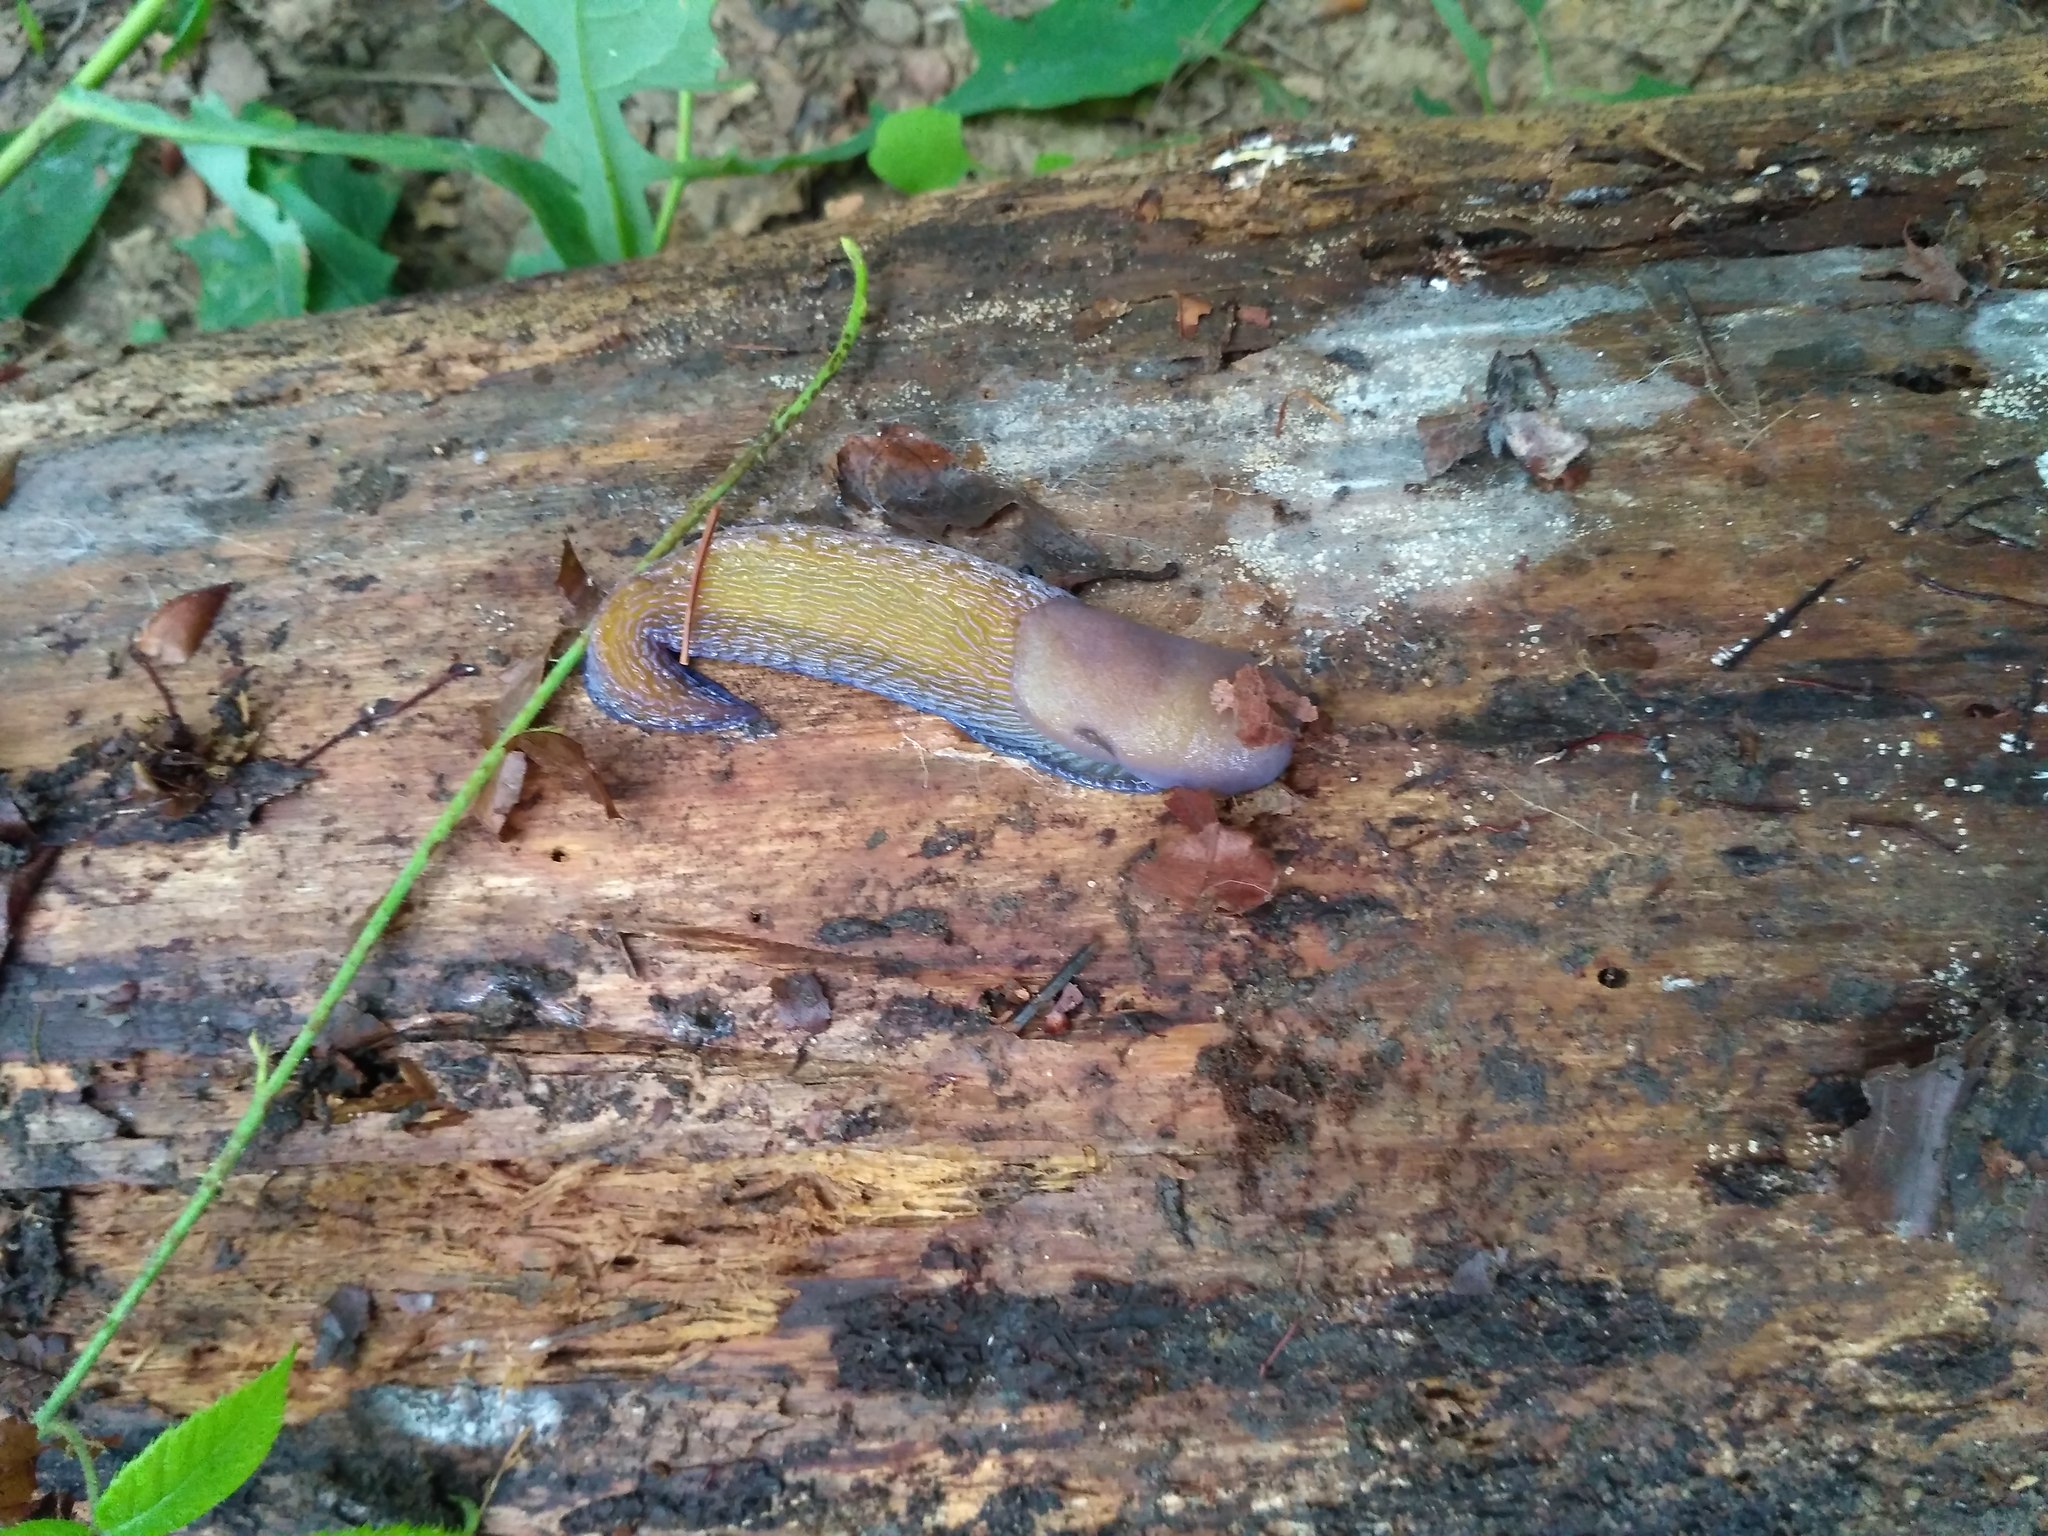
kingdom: Animalia
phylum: Mollusca
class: Gastropoda
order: Stylommatophora
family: Limacidae
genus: Bielzia
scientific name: Bielzia coerulans
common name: Carpathian blue slug
